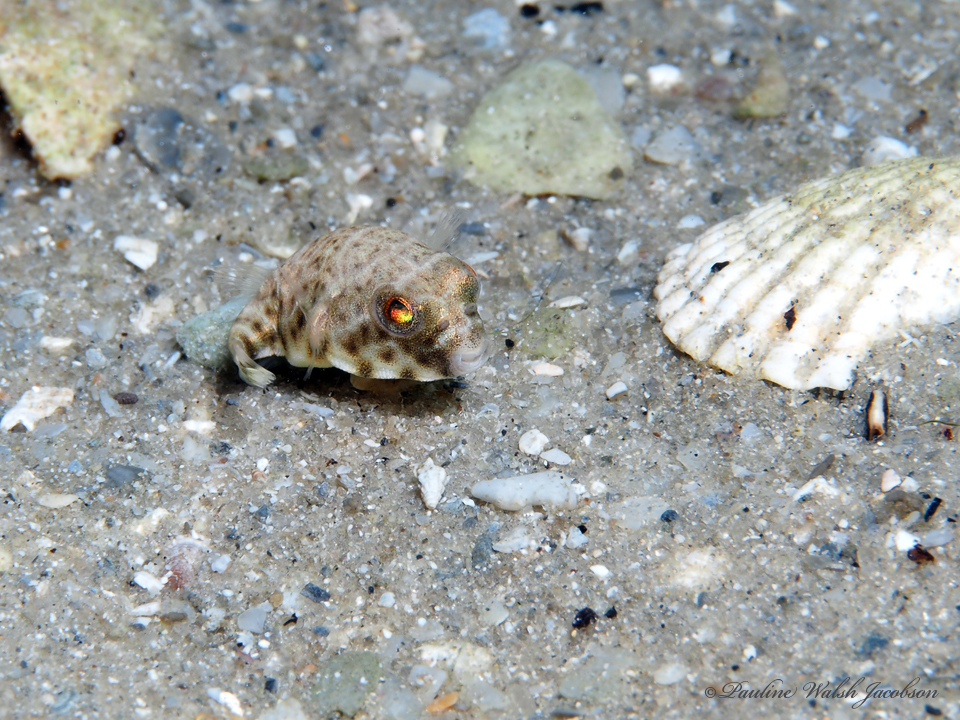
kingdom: Animalia
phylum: Chordata
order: Tetraodontiformes
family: Tetraodontidae
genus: Sphoeroides
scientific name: Sphoeroides testudineus
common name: Checkered puffer
